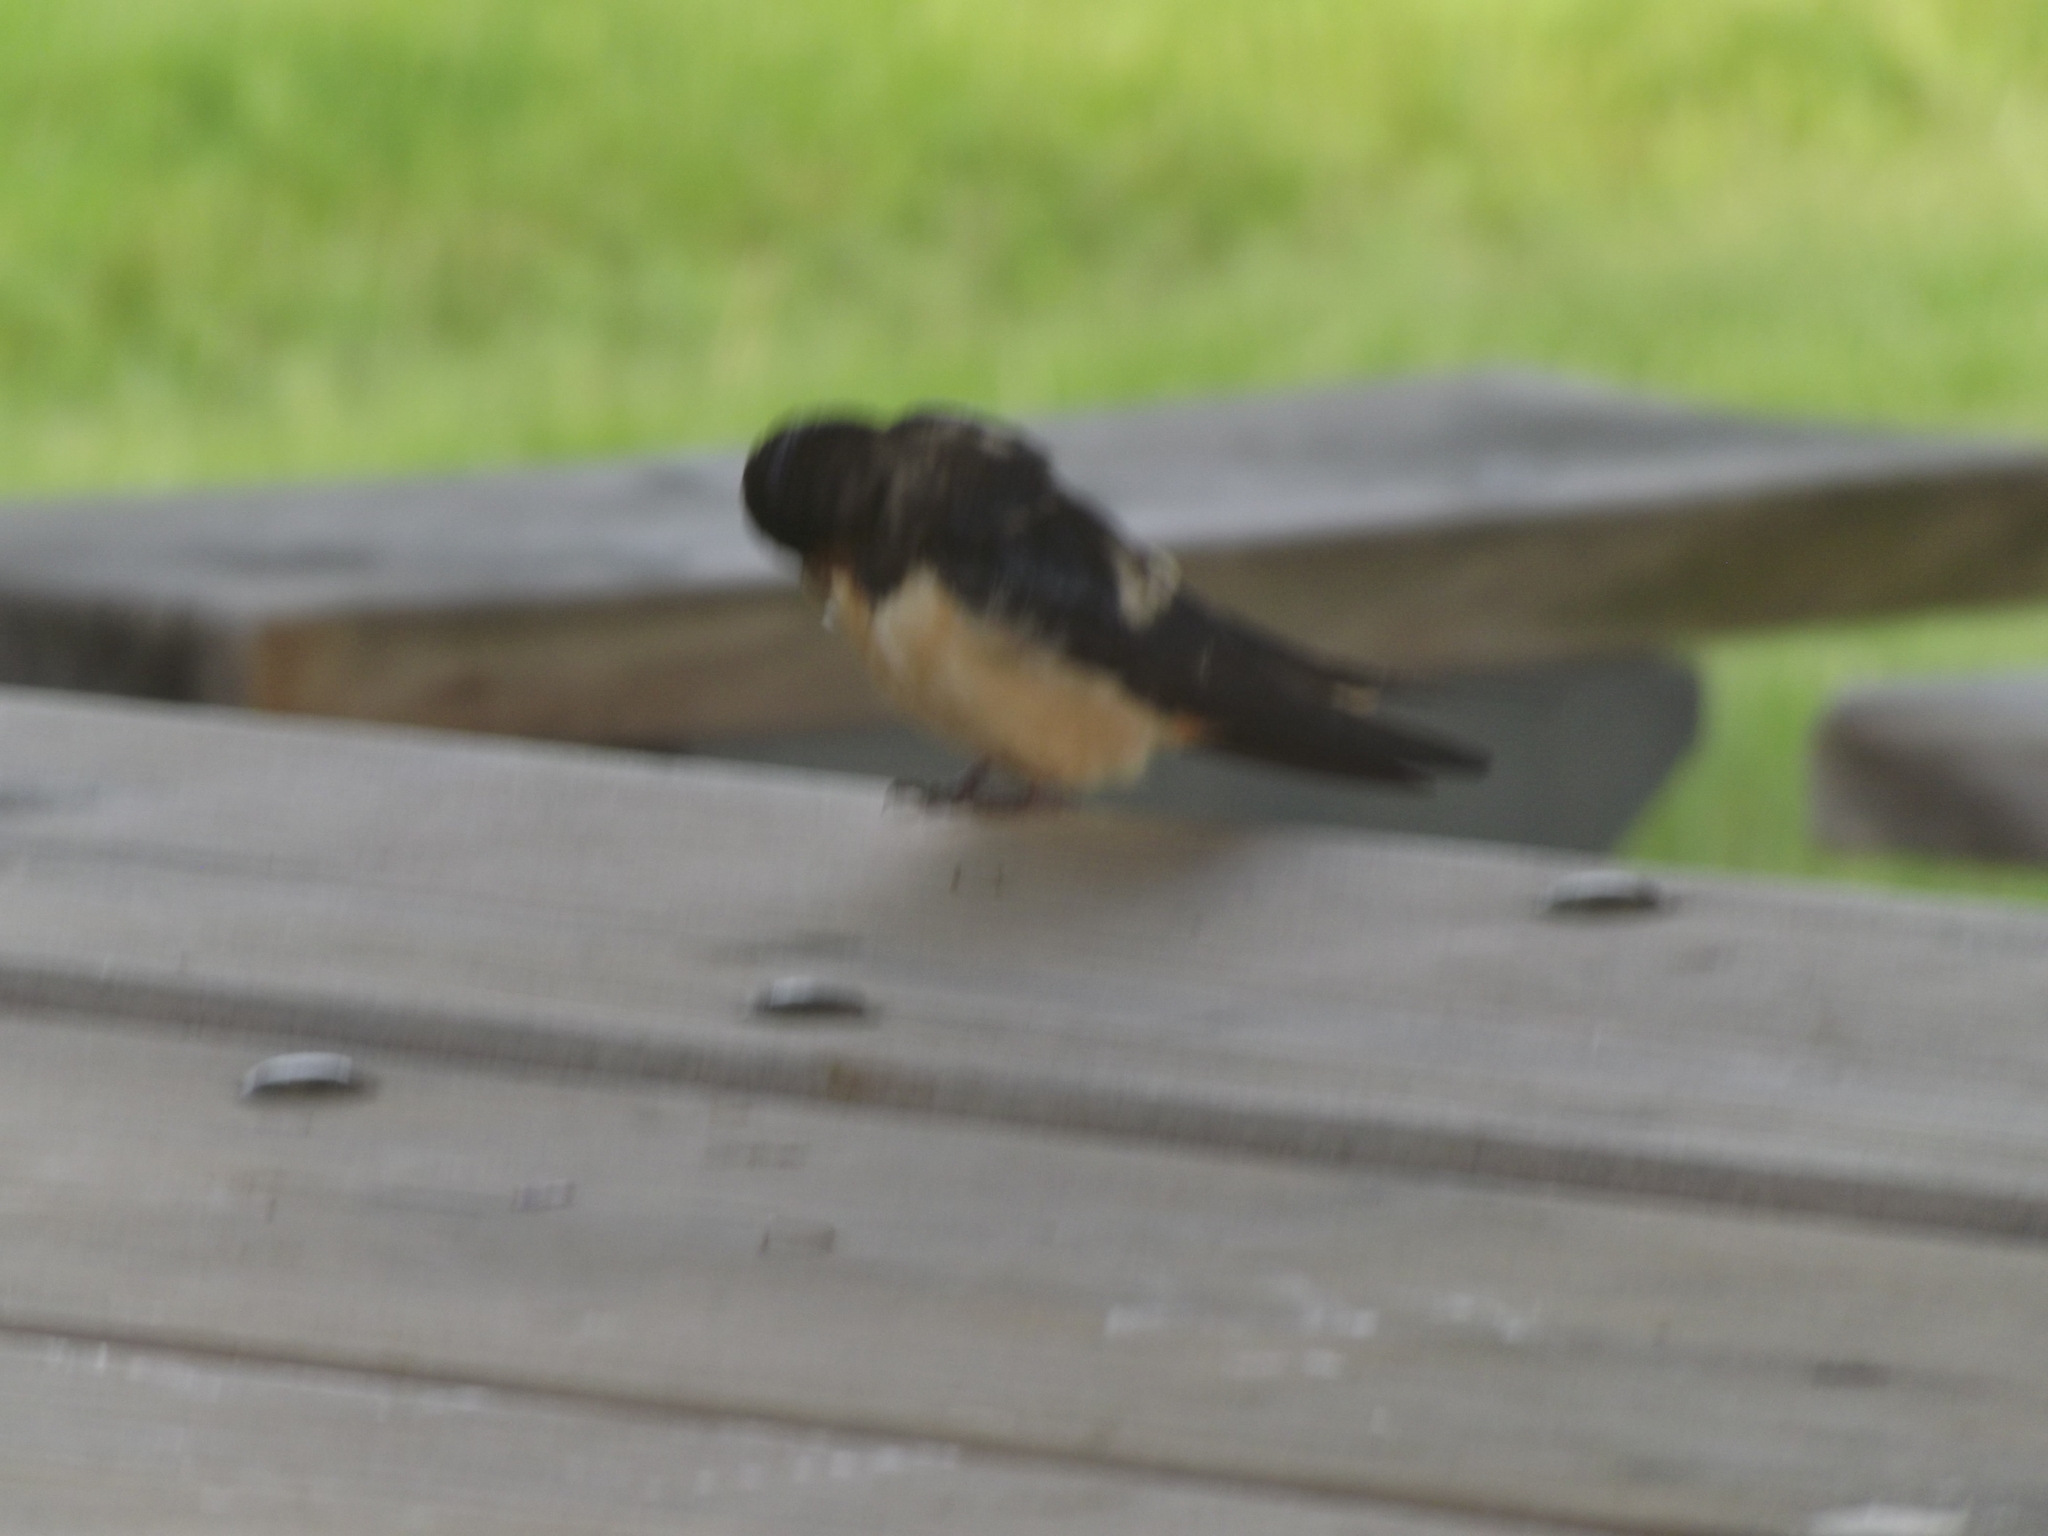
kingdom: Animalia
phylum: Chordata
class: Aves
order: Passeriformes
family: Hirundinidae
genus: Hirundo
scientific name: Hirundo rustica
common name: Barn swallow
